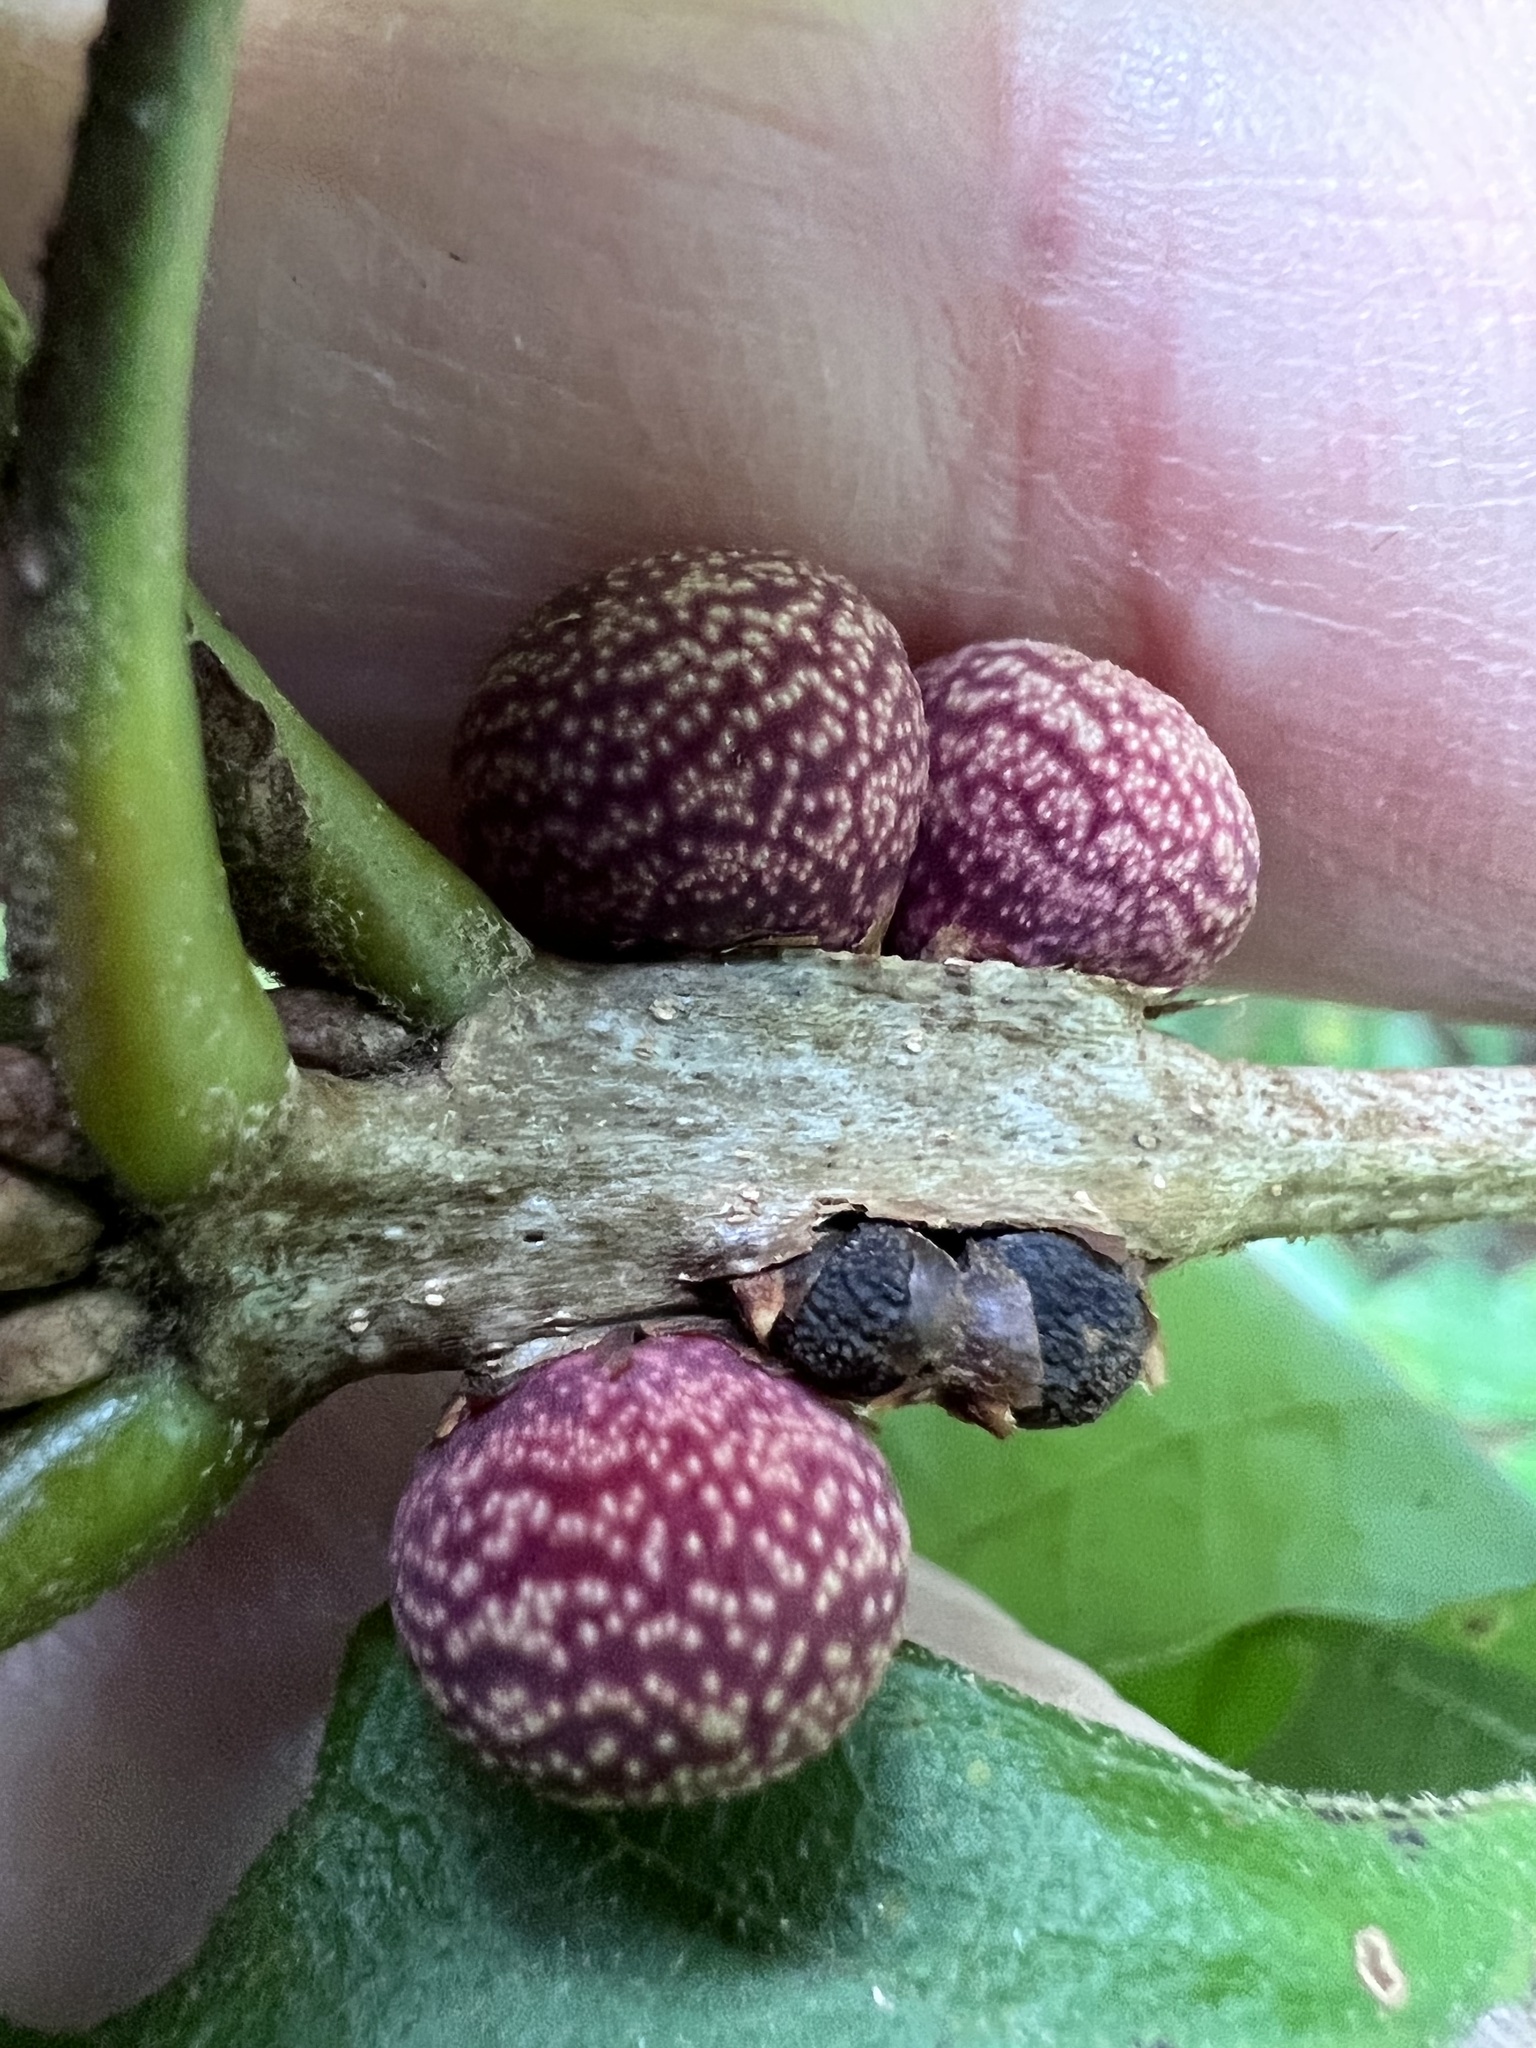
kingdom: Animalia
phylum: Arthropoda
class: Insecta
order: Hymenoptera
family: Cynipidae
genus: Kokkocynips
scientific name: Kokkocynips imbricariae
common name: Banded bullet gall wasp
